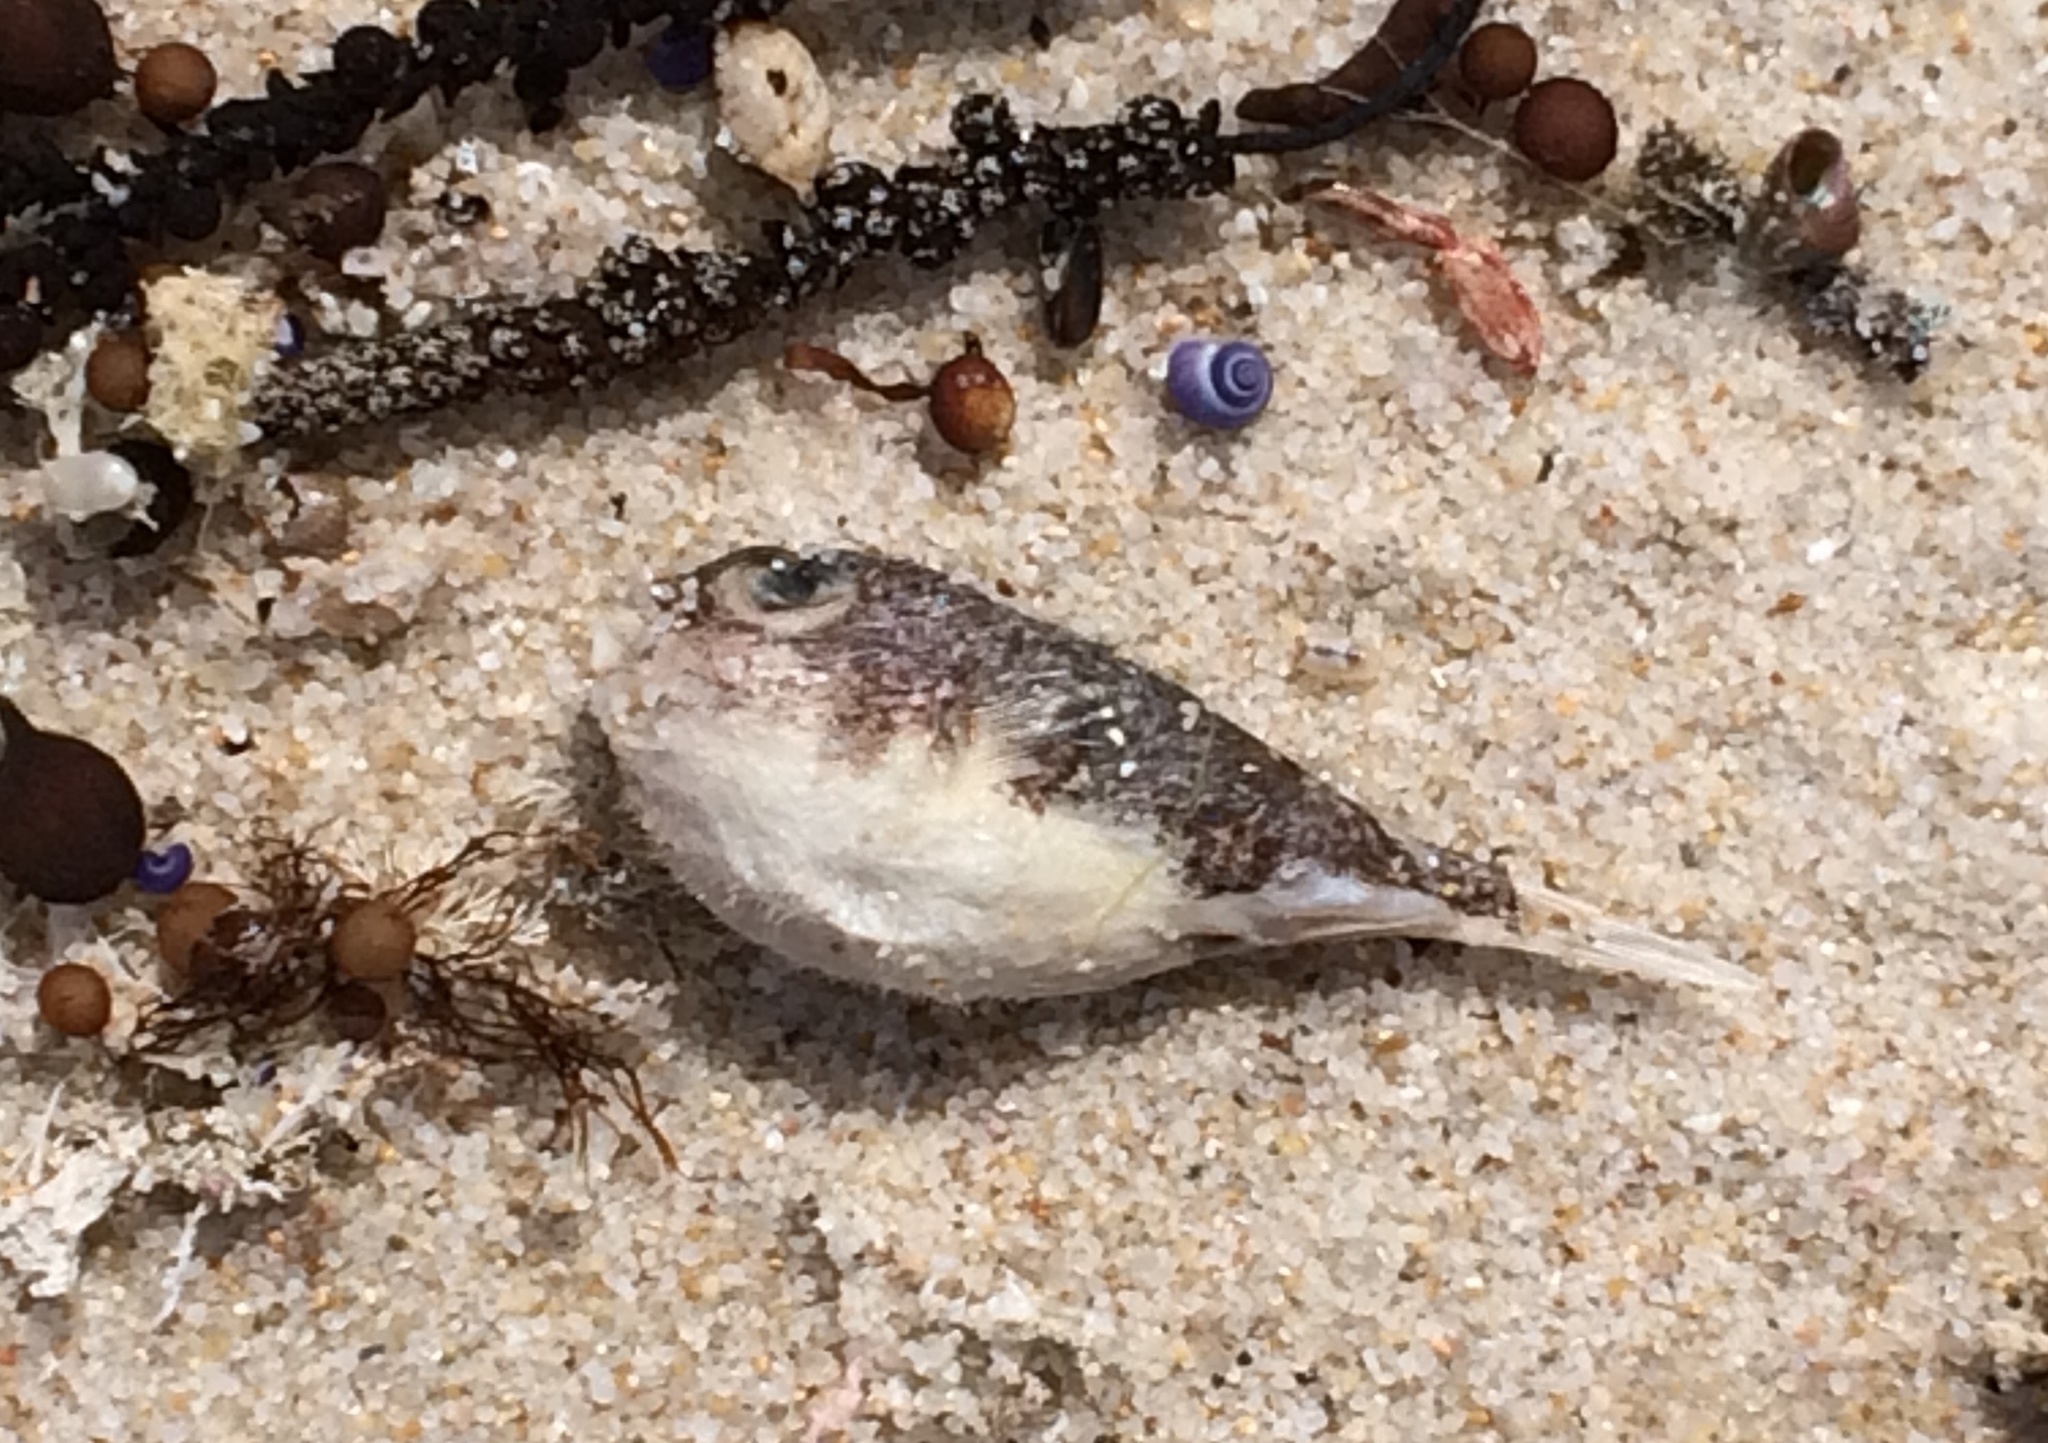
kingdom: Animalia
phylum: Chordata
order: Tetraodontiformes
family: Tetraodontidae
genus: Polyspina
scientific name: Polyspina piosae
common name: Orange-barred pufferfish
